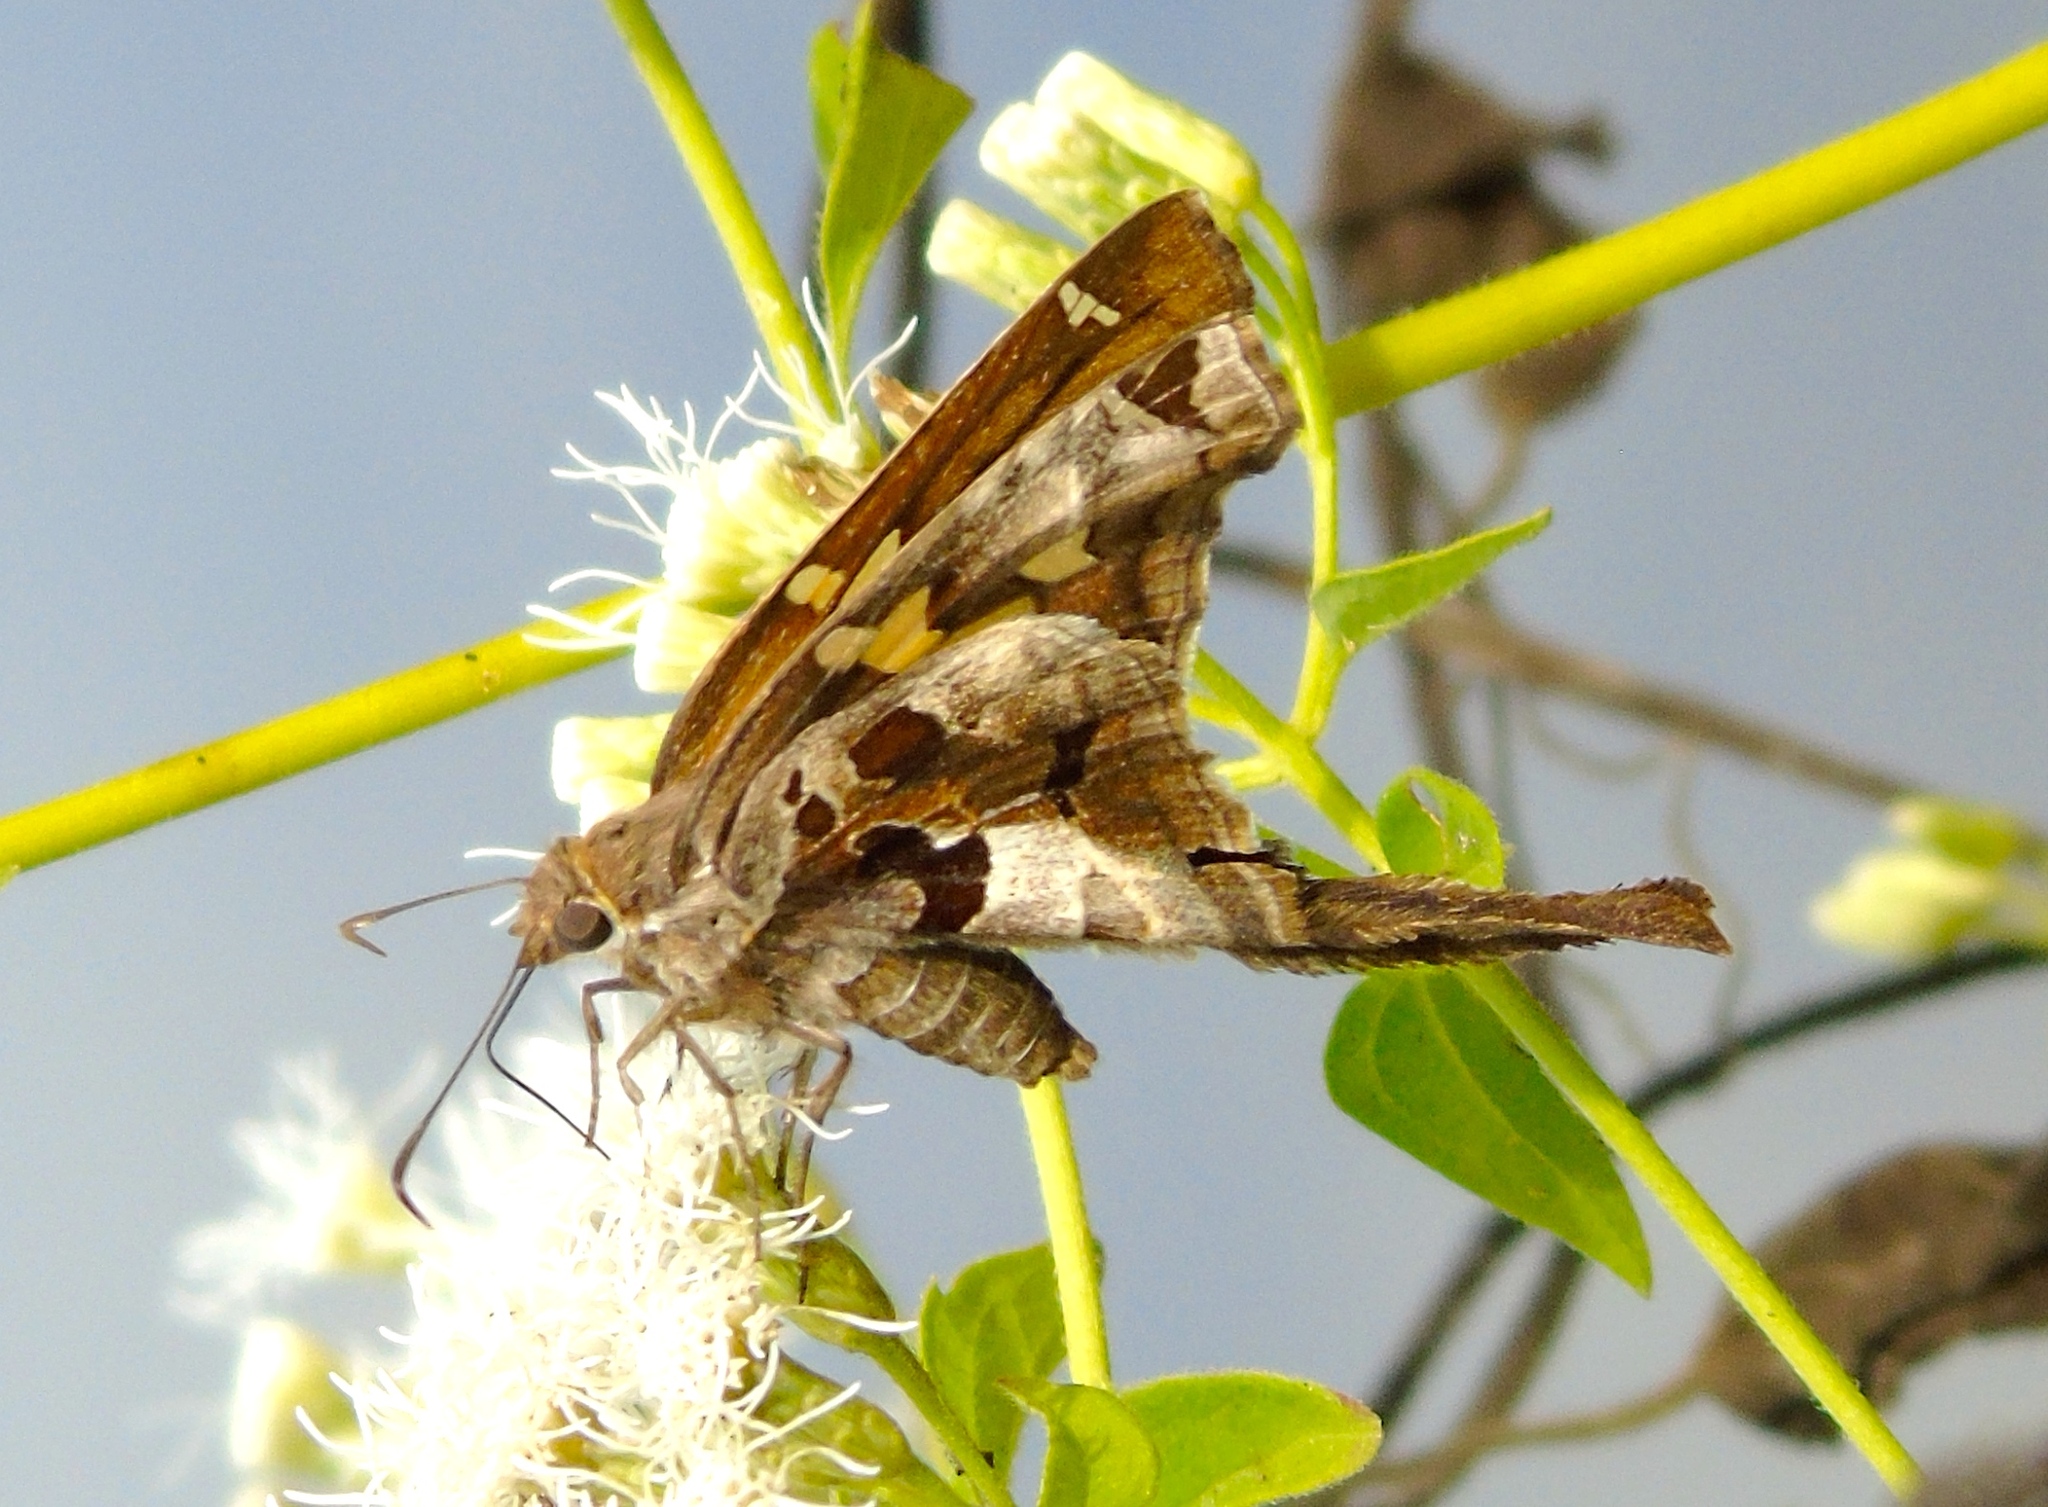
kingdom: Animalia
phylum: Arthropoda
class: Insecta
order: Lepidoptera
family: Hesperiidae
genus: Chioides
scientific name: Chioides zilpa
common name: Zilpa longtail
